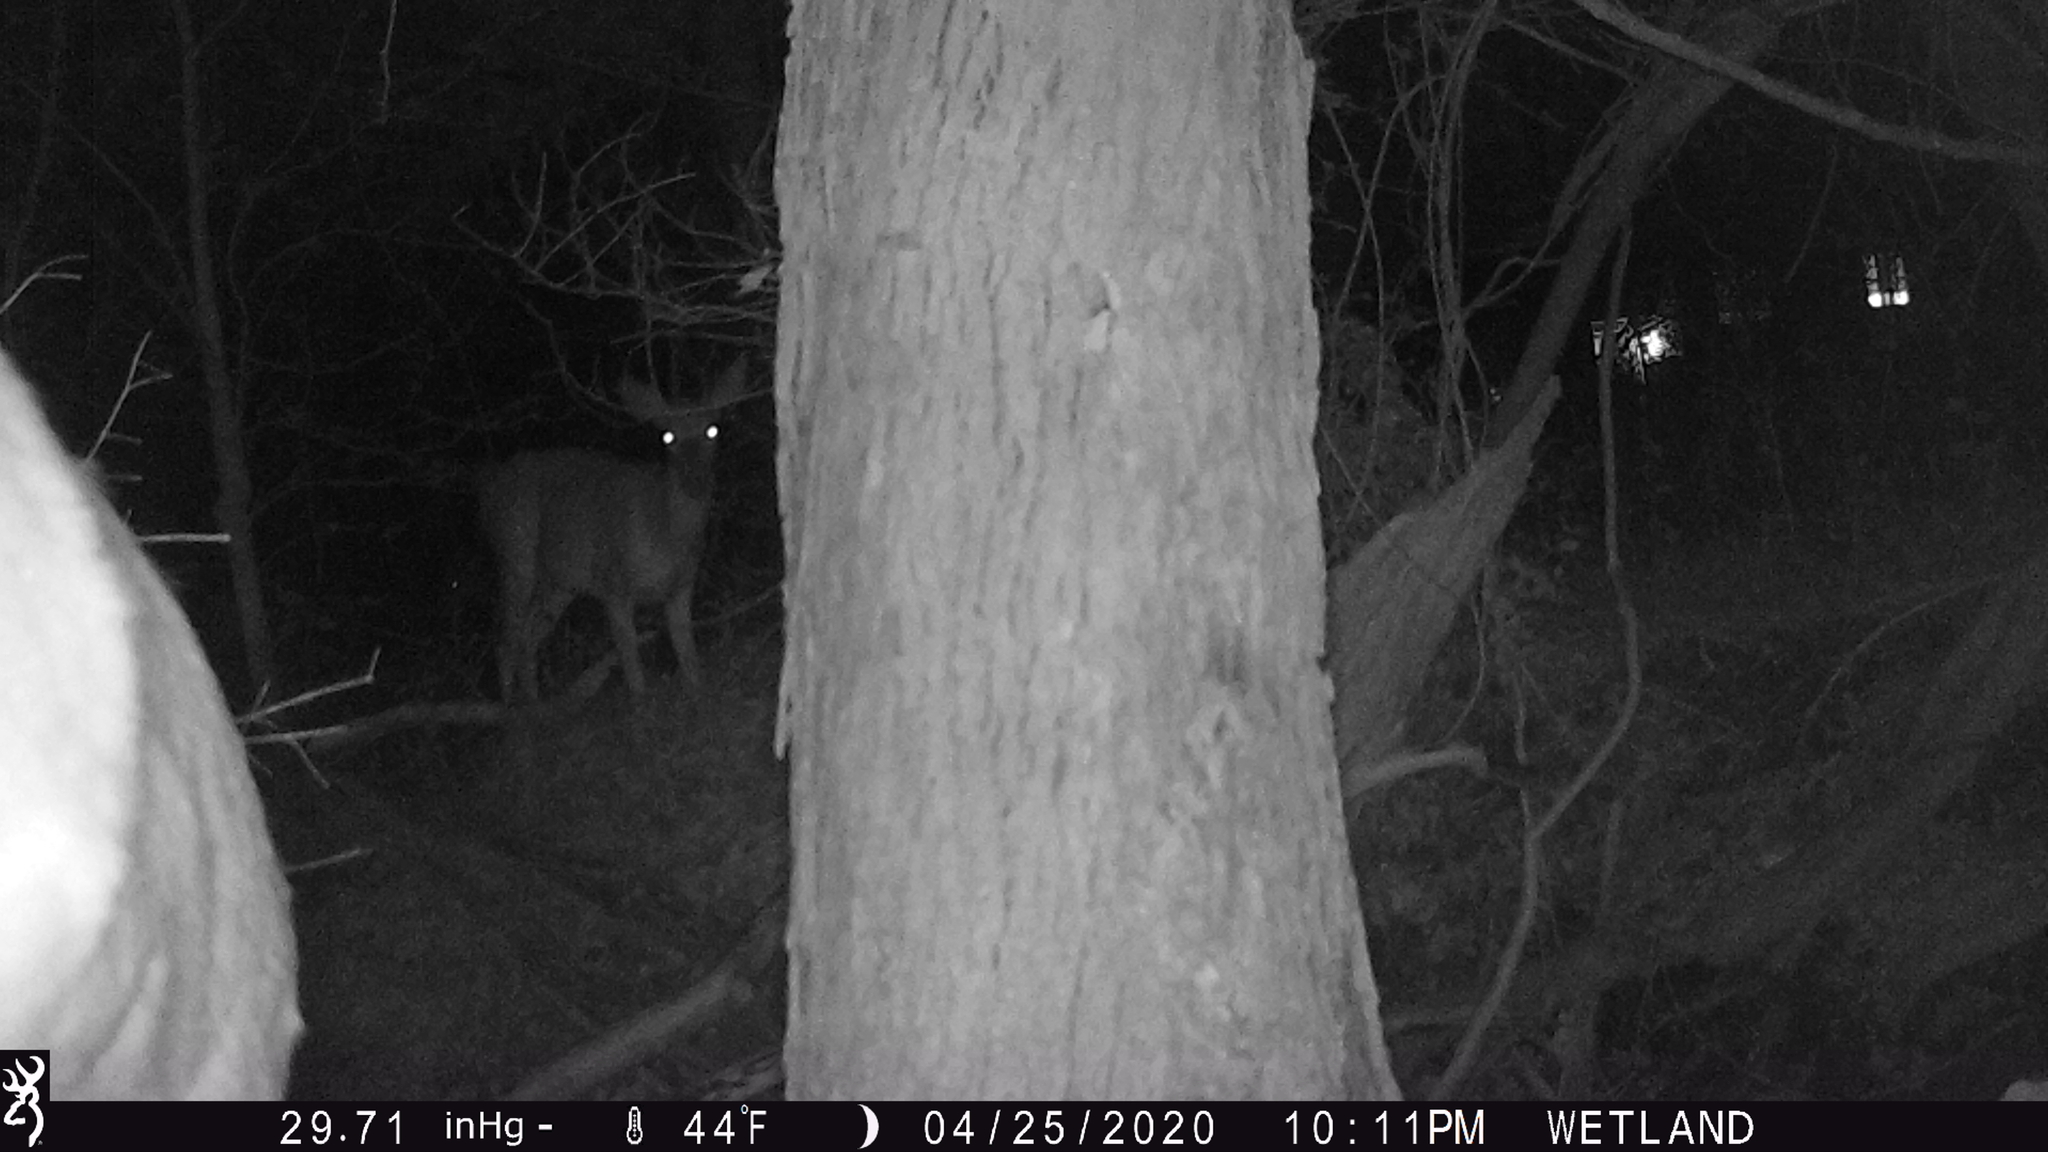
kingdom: Animalia
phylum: Chordata
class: Mammalia
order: Artiodactyla
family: Cervidae
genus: Odocoileus
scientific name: Odocoileus virginianus
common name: White-tailed deer
